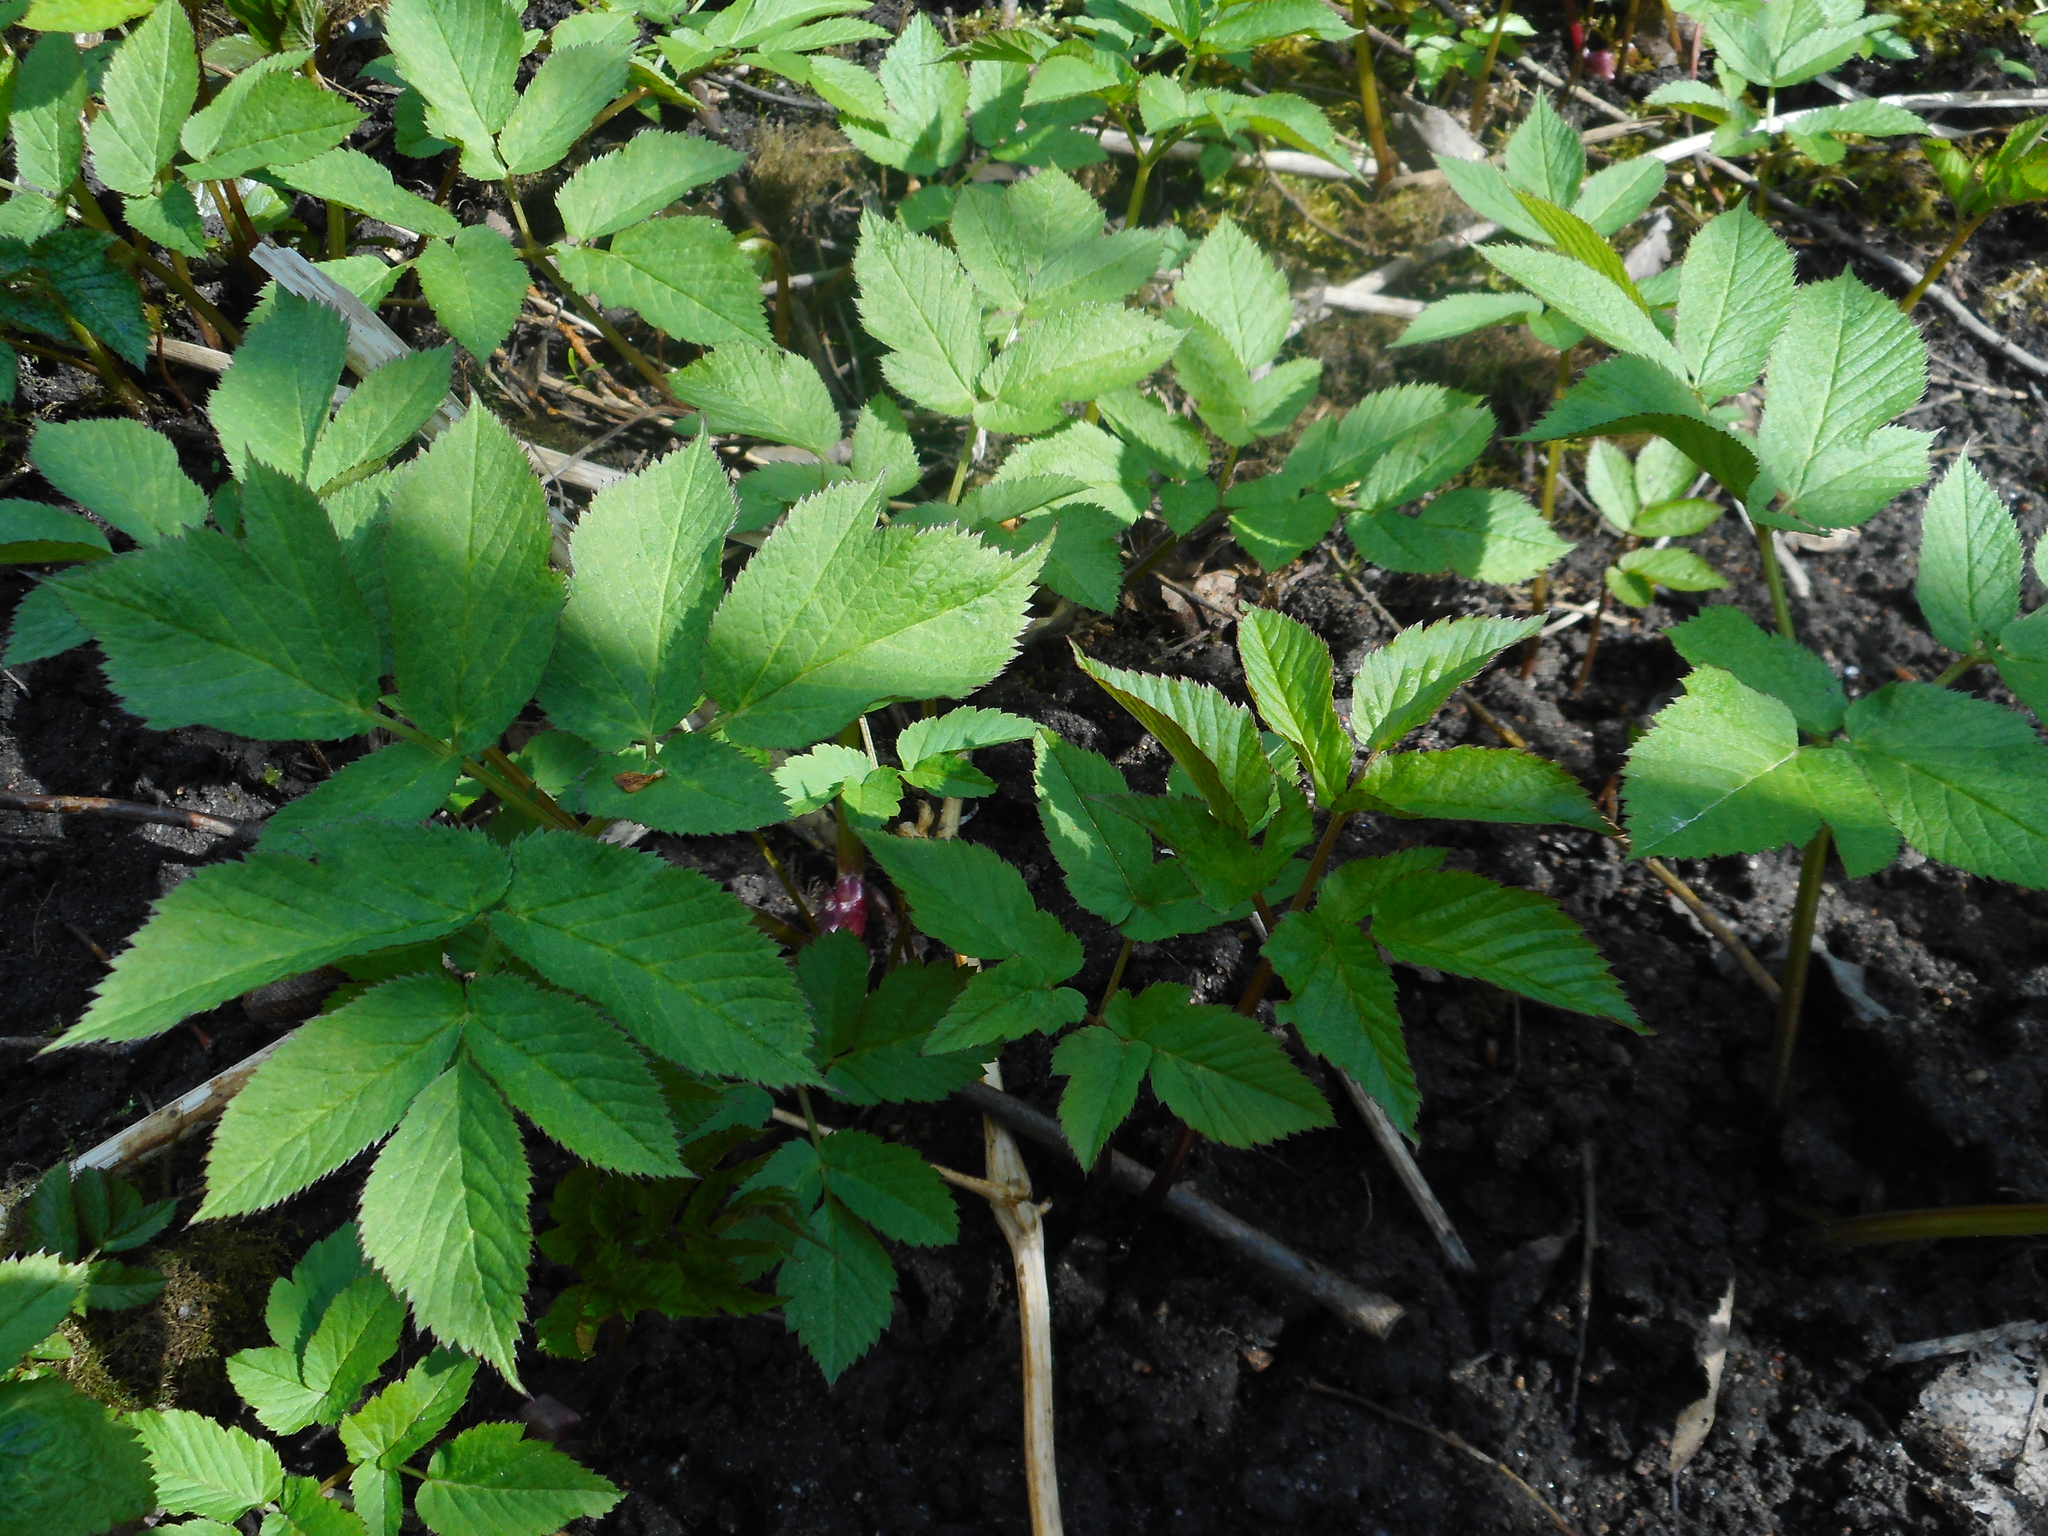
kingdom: Plantae
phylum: Tracheophyta
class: Magnoliopsida
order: Apiales
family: Apiaceae
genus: Aegopodium
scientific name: Aegopodium podagraria
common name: Ground-elder
